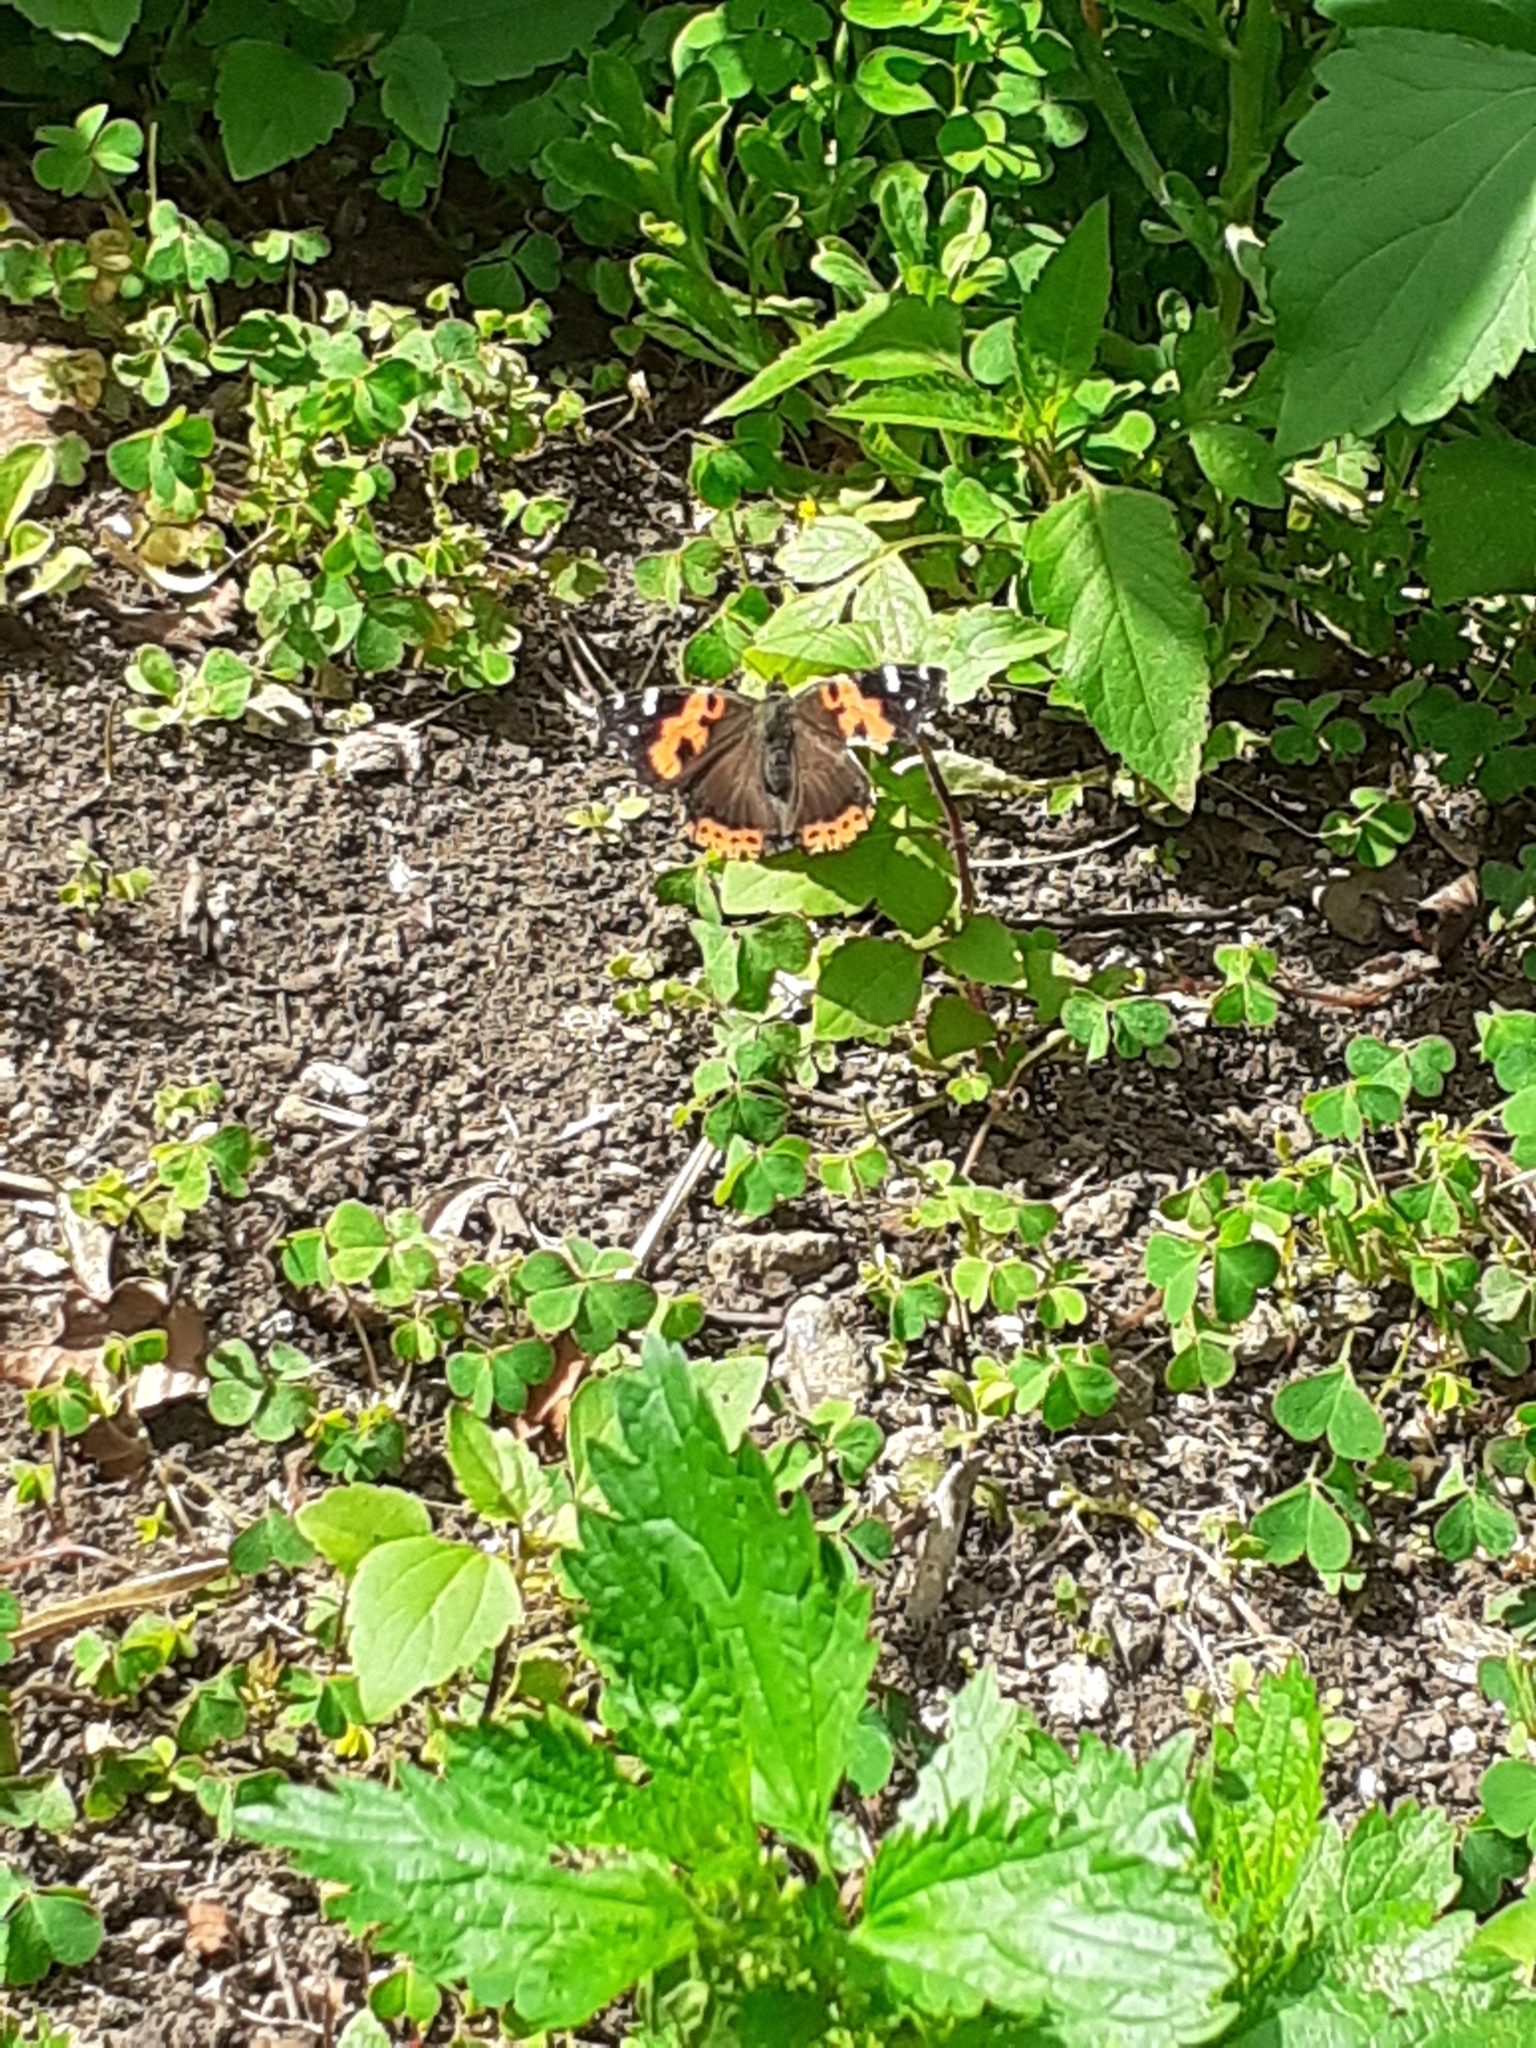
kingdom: Animalia
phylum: Arthropoda
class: Insecta
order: Lepidoptera
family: Nymphalidae
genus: Vanessa
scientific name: Vanessa vulcania
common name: Canary red admiral
